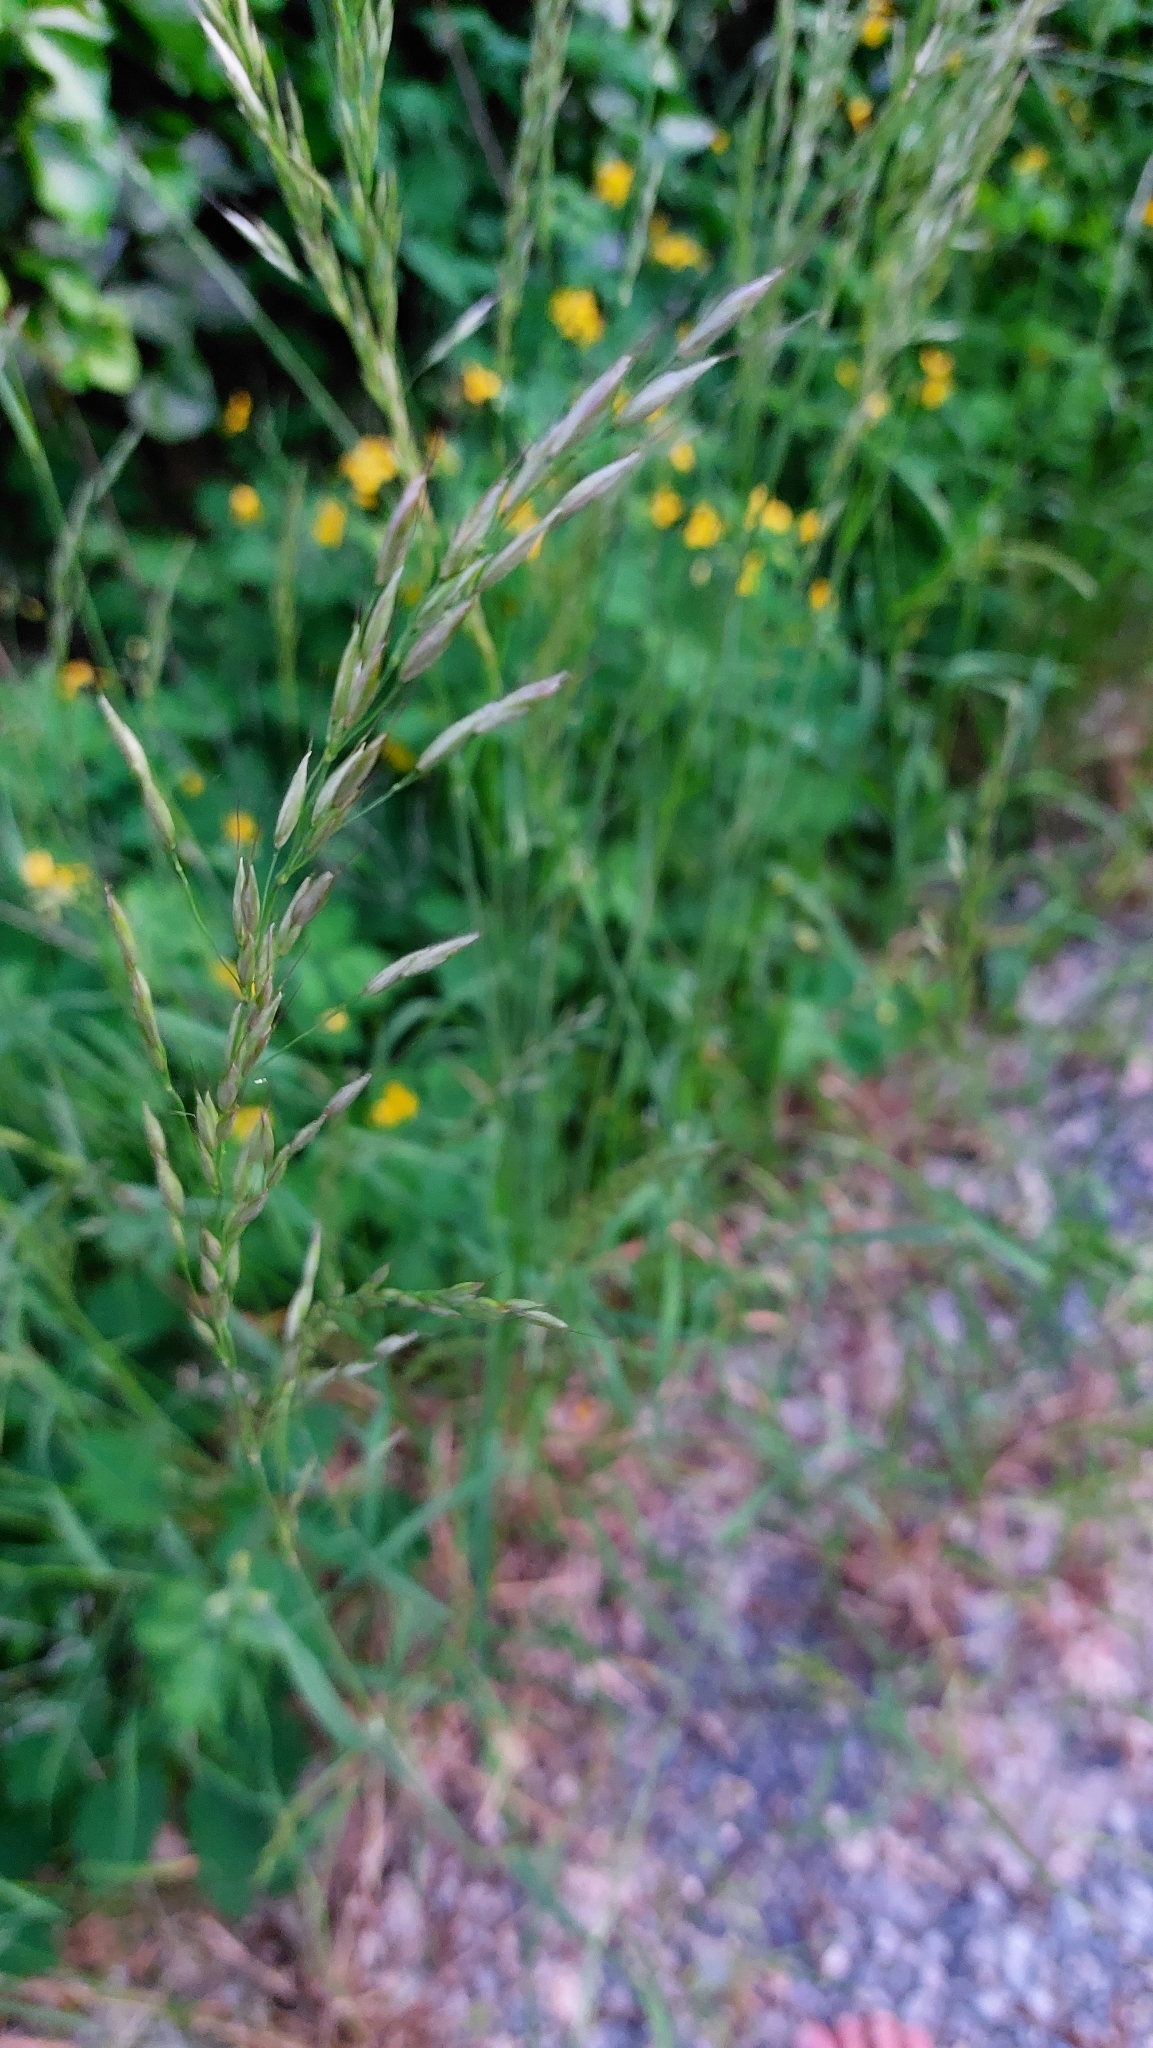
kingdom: Plantae
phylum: Tracheophyta
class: Liliopsida
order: Poales
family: Poaceae
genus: Arrhenatherum
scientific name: Arrhenatherum elatius
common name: Tall oatgrass
